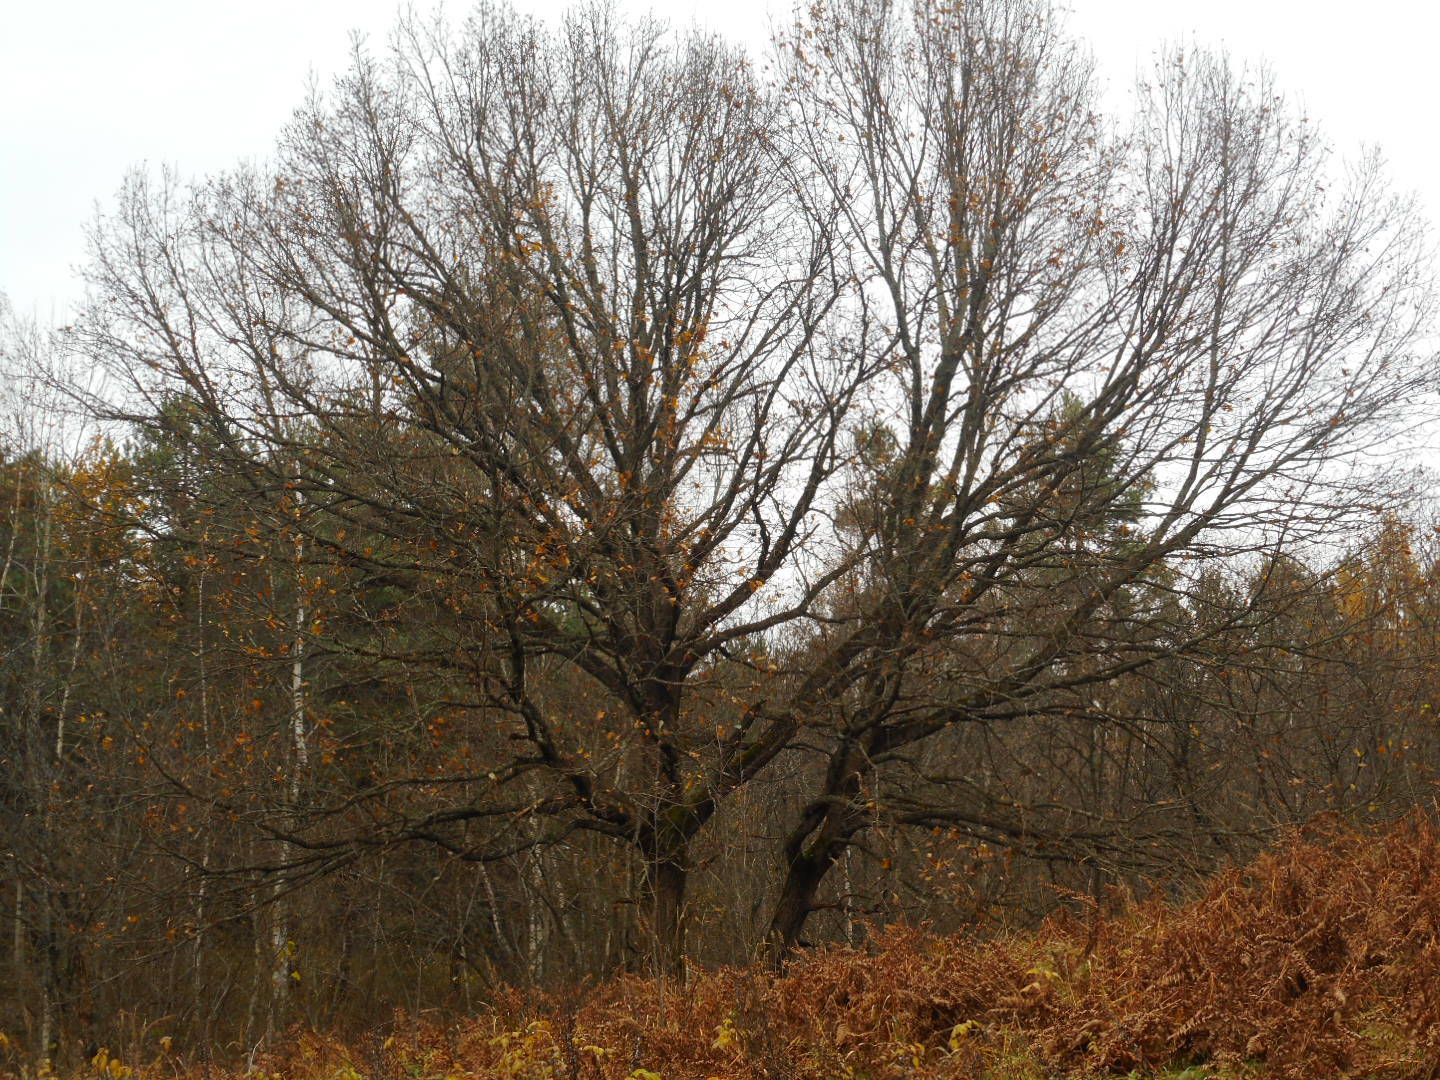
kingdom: Plantae
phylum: Tracheophyta
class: Magnoliopsida
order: Fagales
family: Fagaceae
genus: Quercus
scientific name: Quercus robur
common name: Pedunculate oak
